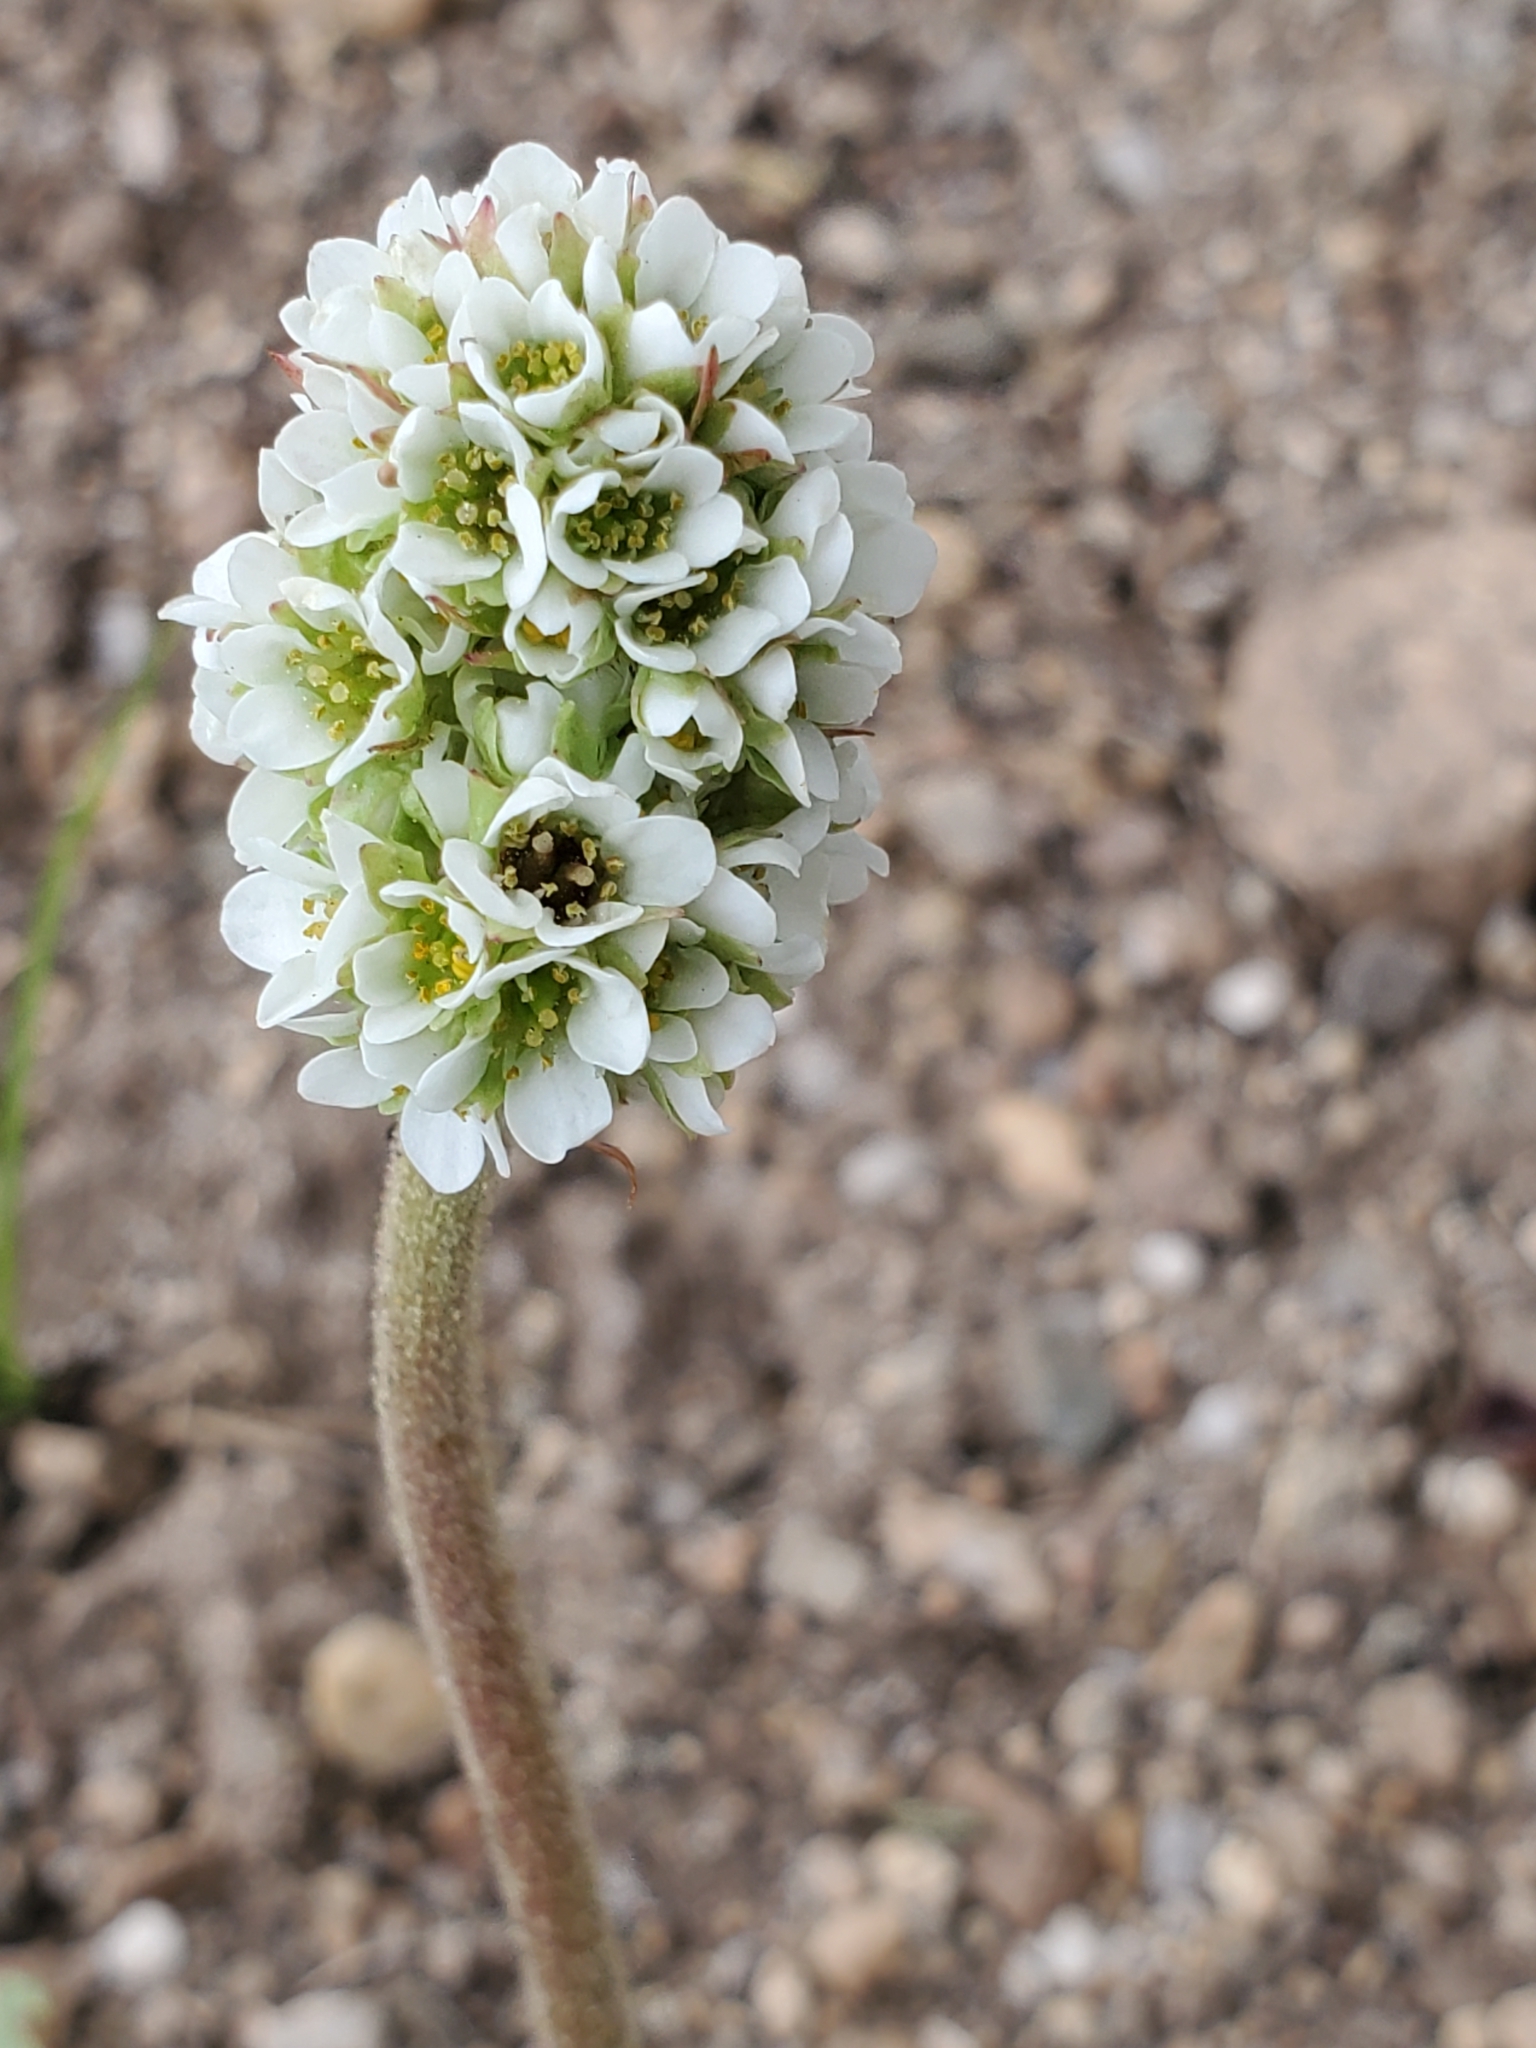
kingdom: Plantae
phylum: Tracheophyta
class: Magnoliopsida
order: Saxifragales
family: Saxifragaceae
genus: Micranthes
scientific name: Micranthes rhomboidea
